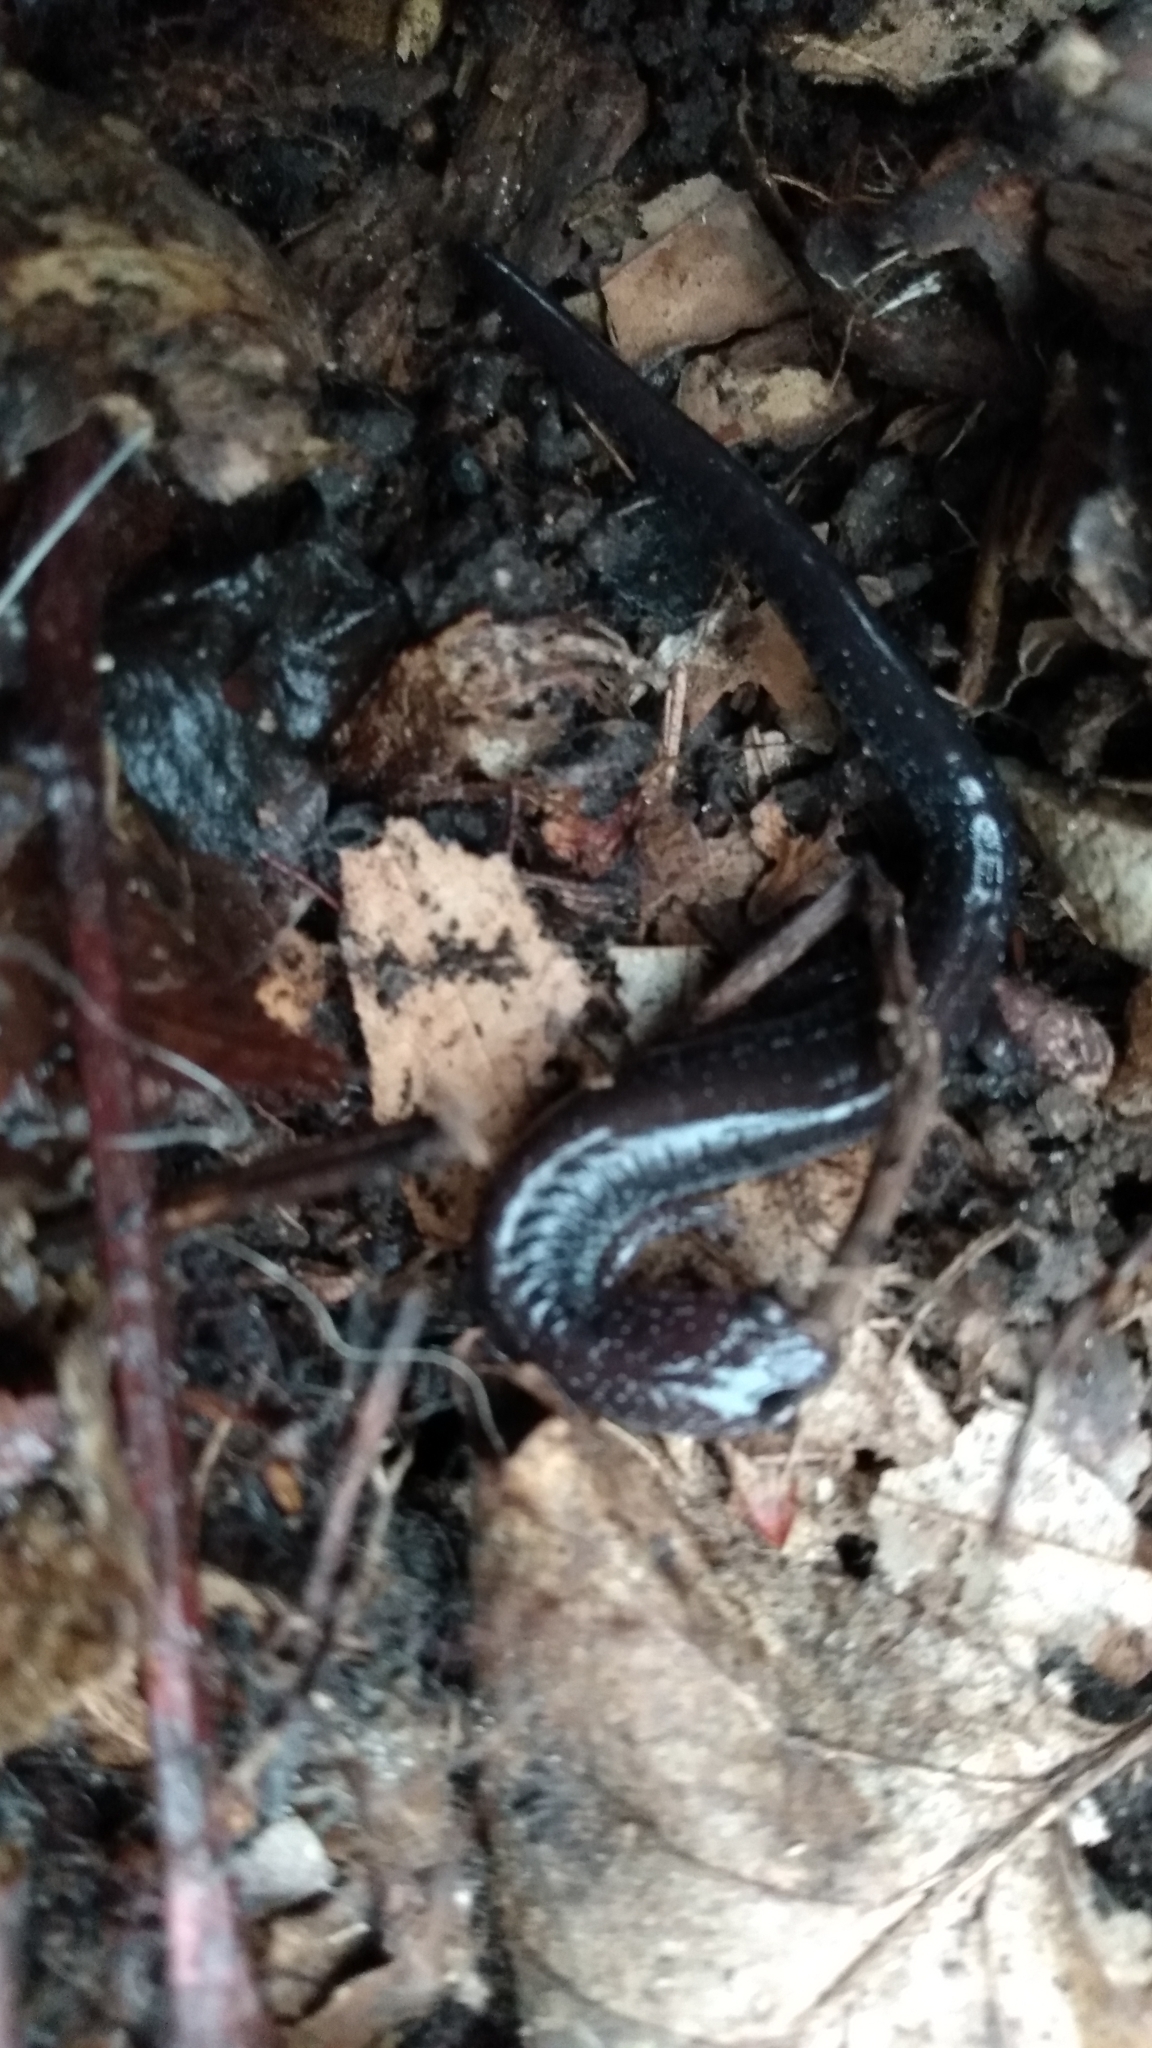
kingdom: Animalia
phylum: Chordata
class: Amphibia
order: Caudata
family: Plethodontidae
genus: Plethodon
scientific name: Plethodon cinereus
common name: Redback salamander
